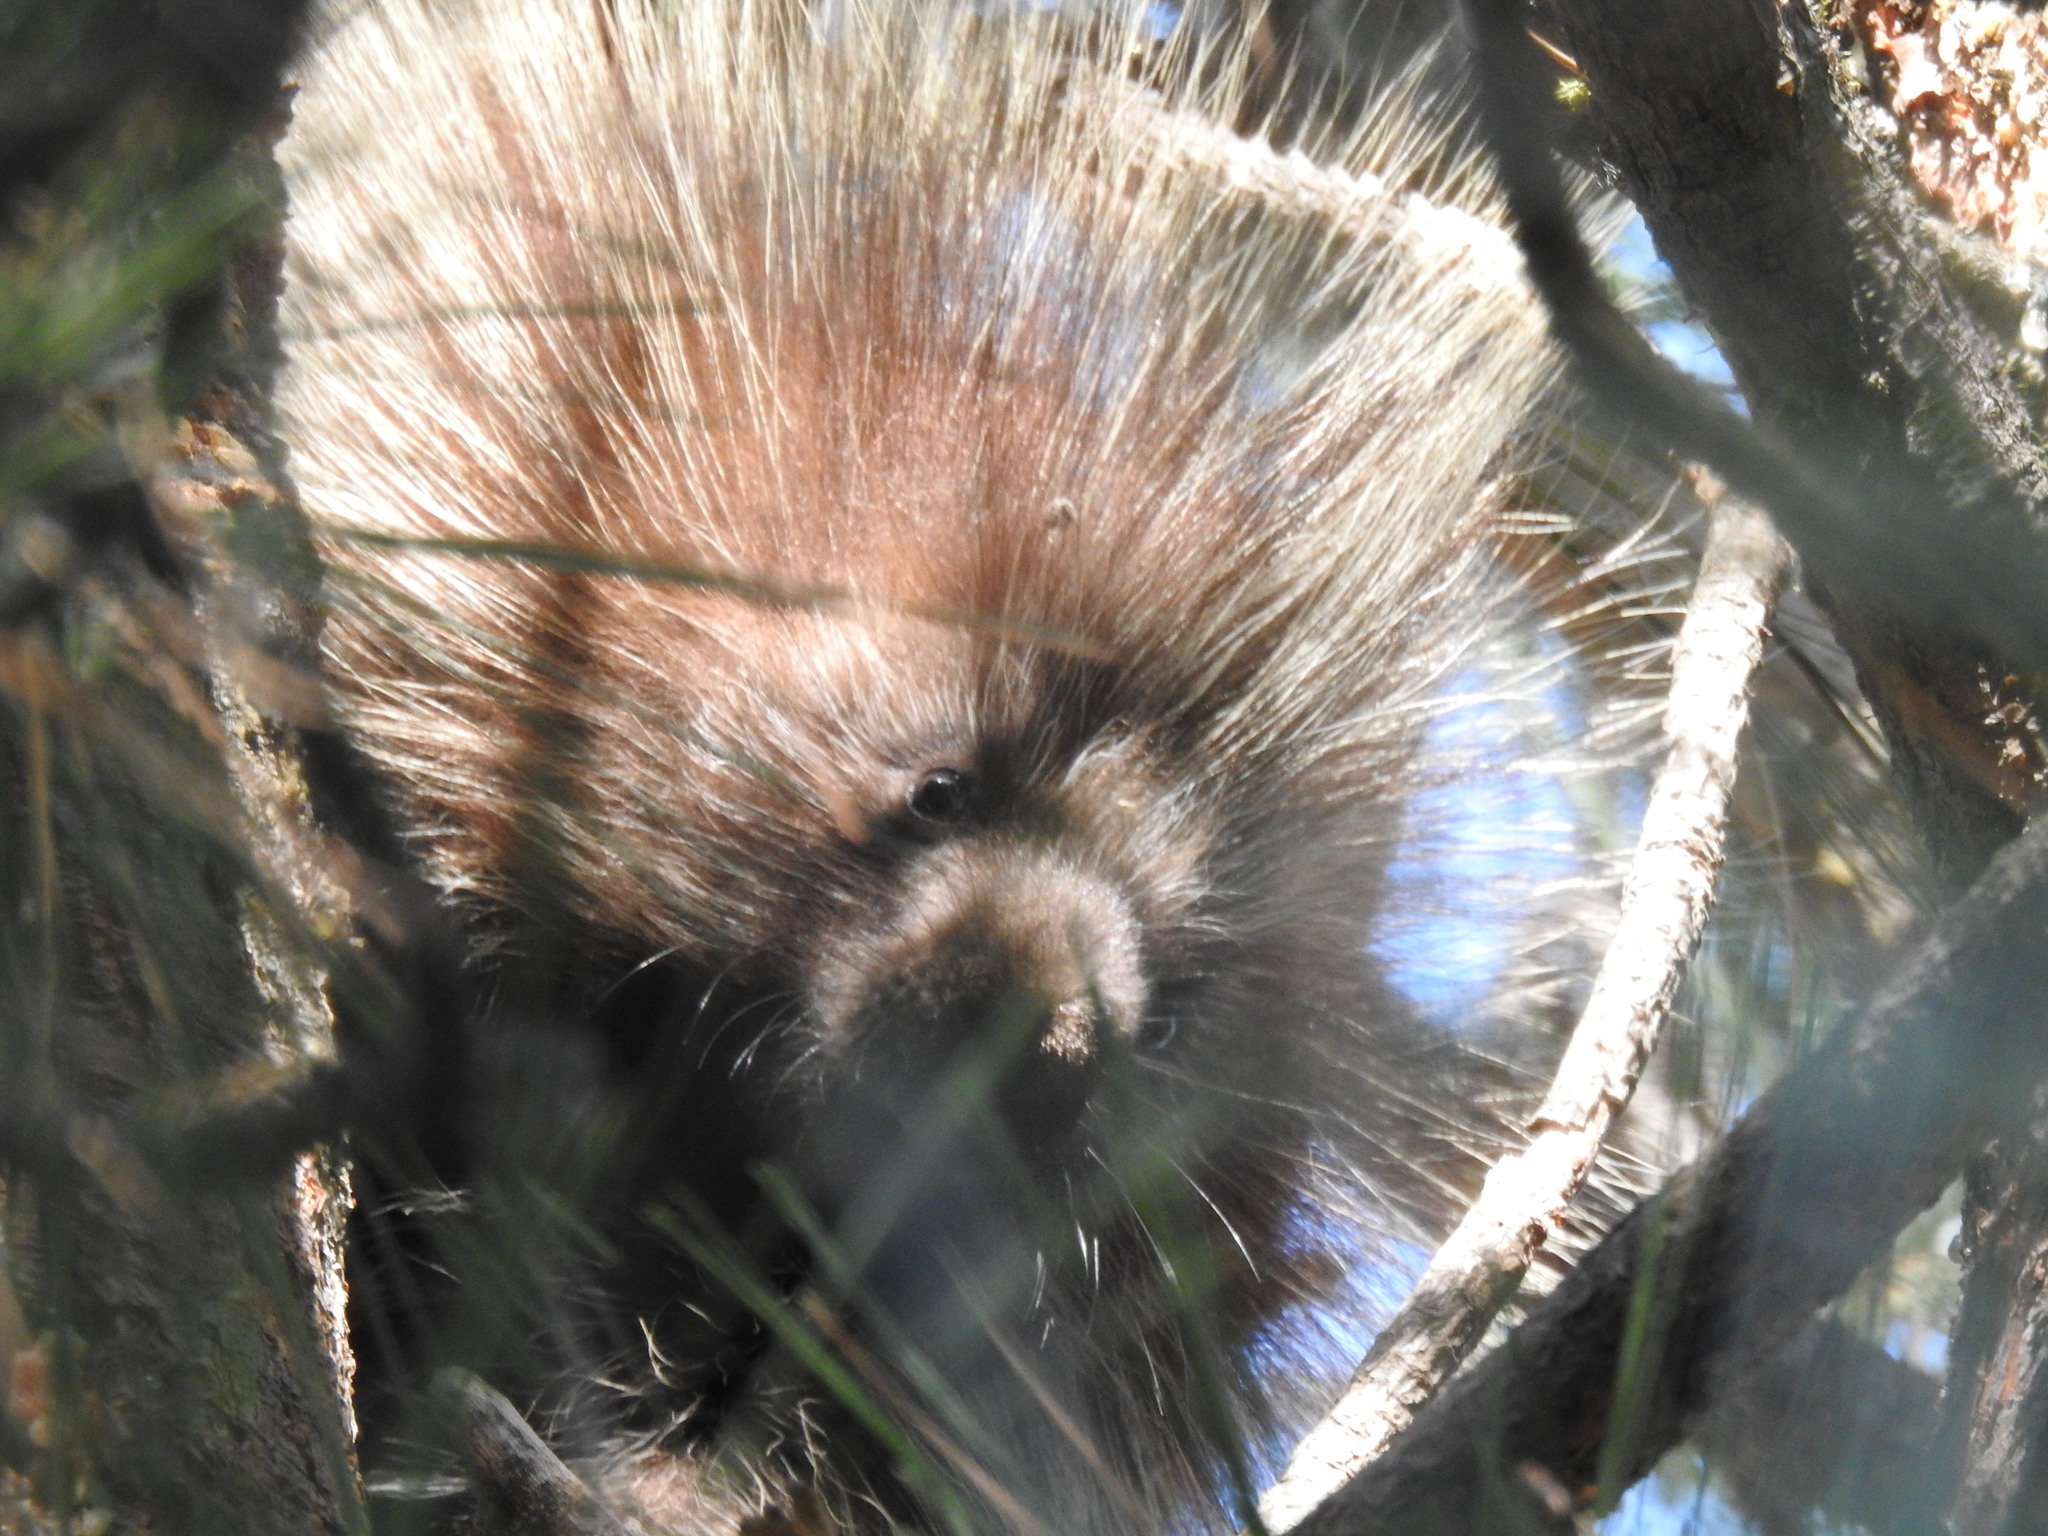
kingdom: Animalia
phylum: Chordata
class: Mammalia
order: Rodentia
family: Erethizontidae
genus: Erethizon
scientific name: Erethizon dorsatus
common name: North american porcupine
